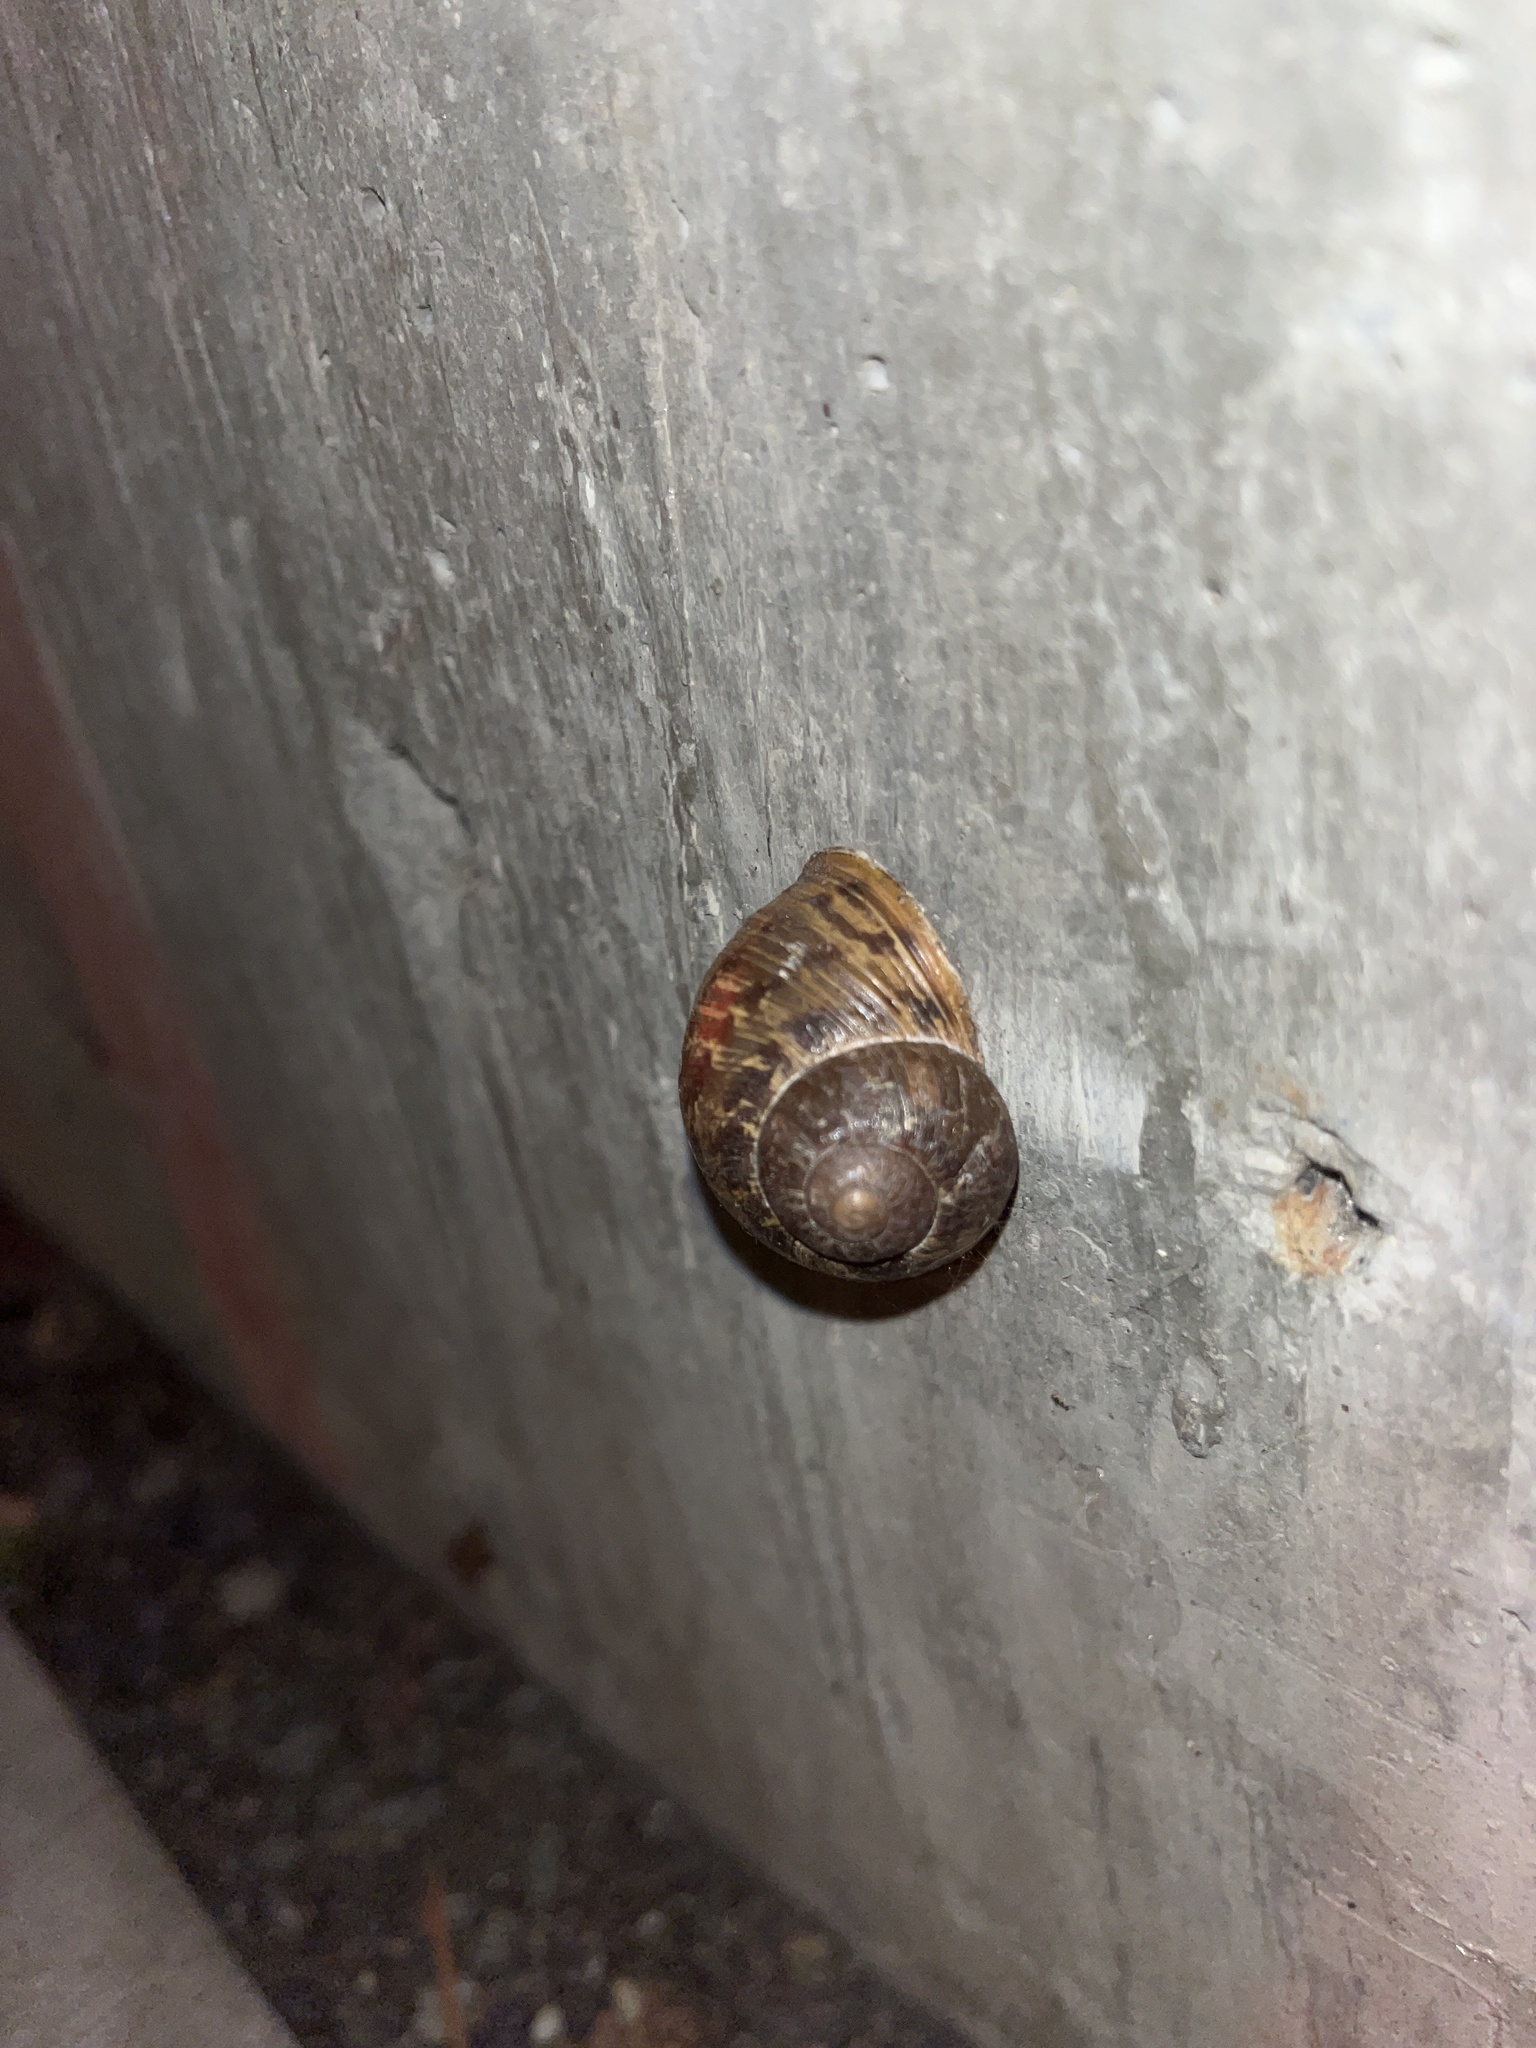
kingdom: Animalia
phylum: Mollusca
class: Gastropoda
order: Stylommatophora
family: Helicidae
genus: Cornu
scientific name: Cornu aspersum
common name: Brown garden snail
